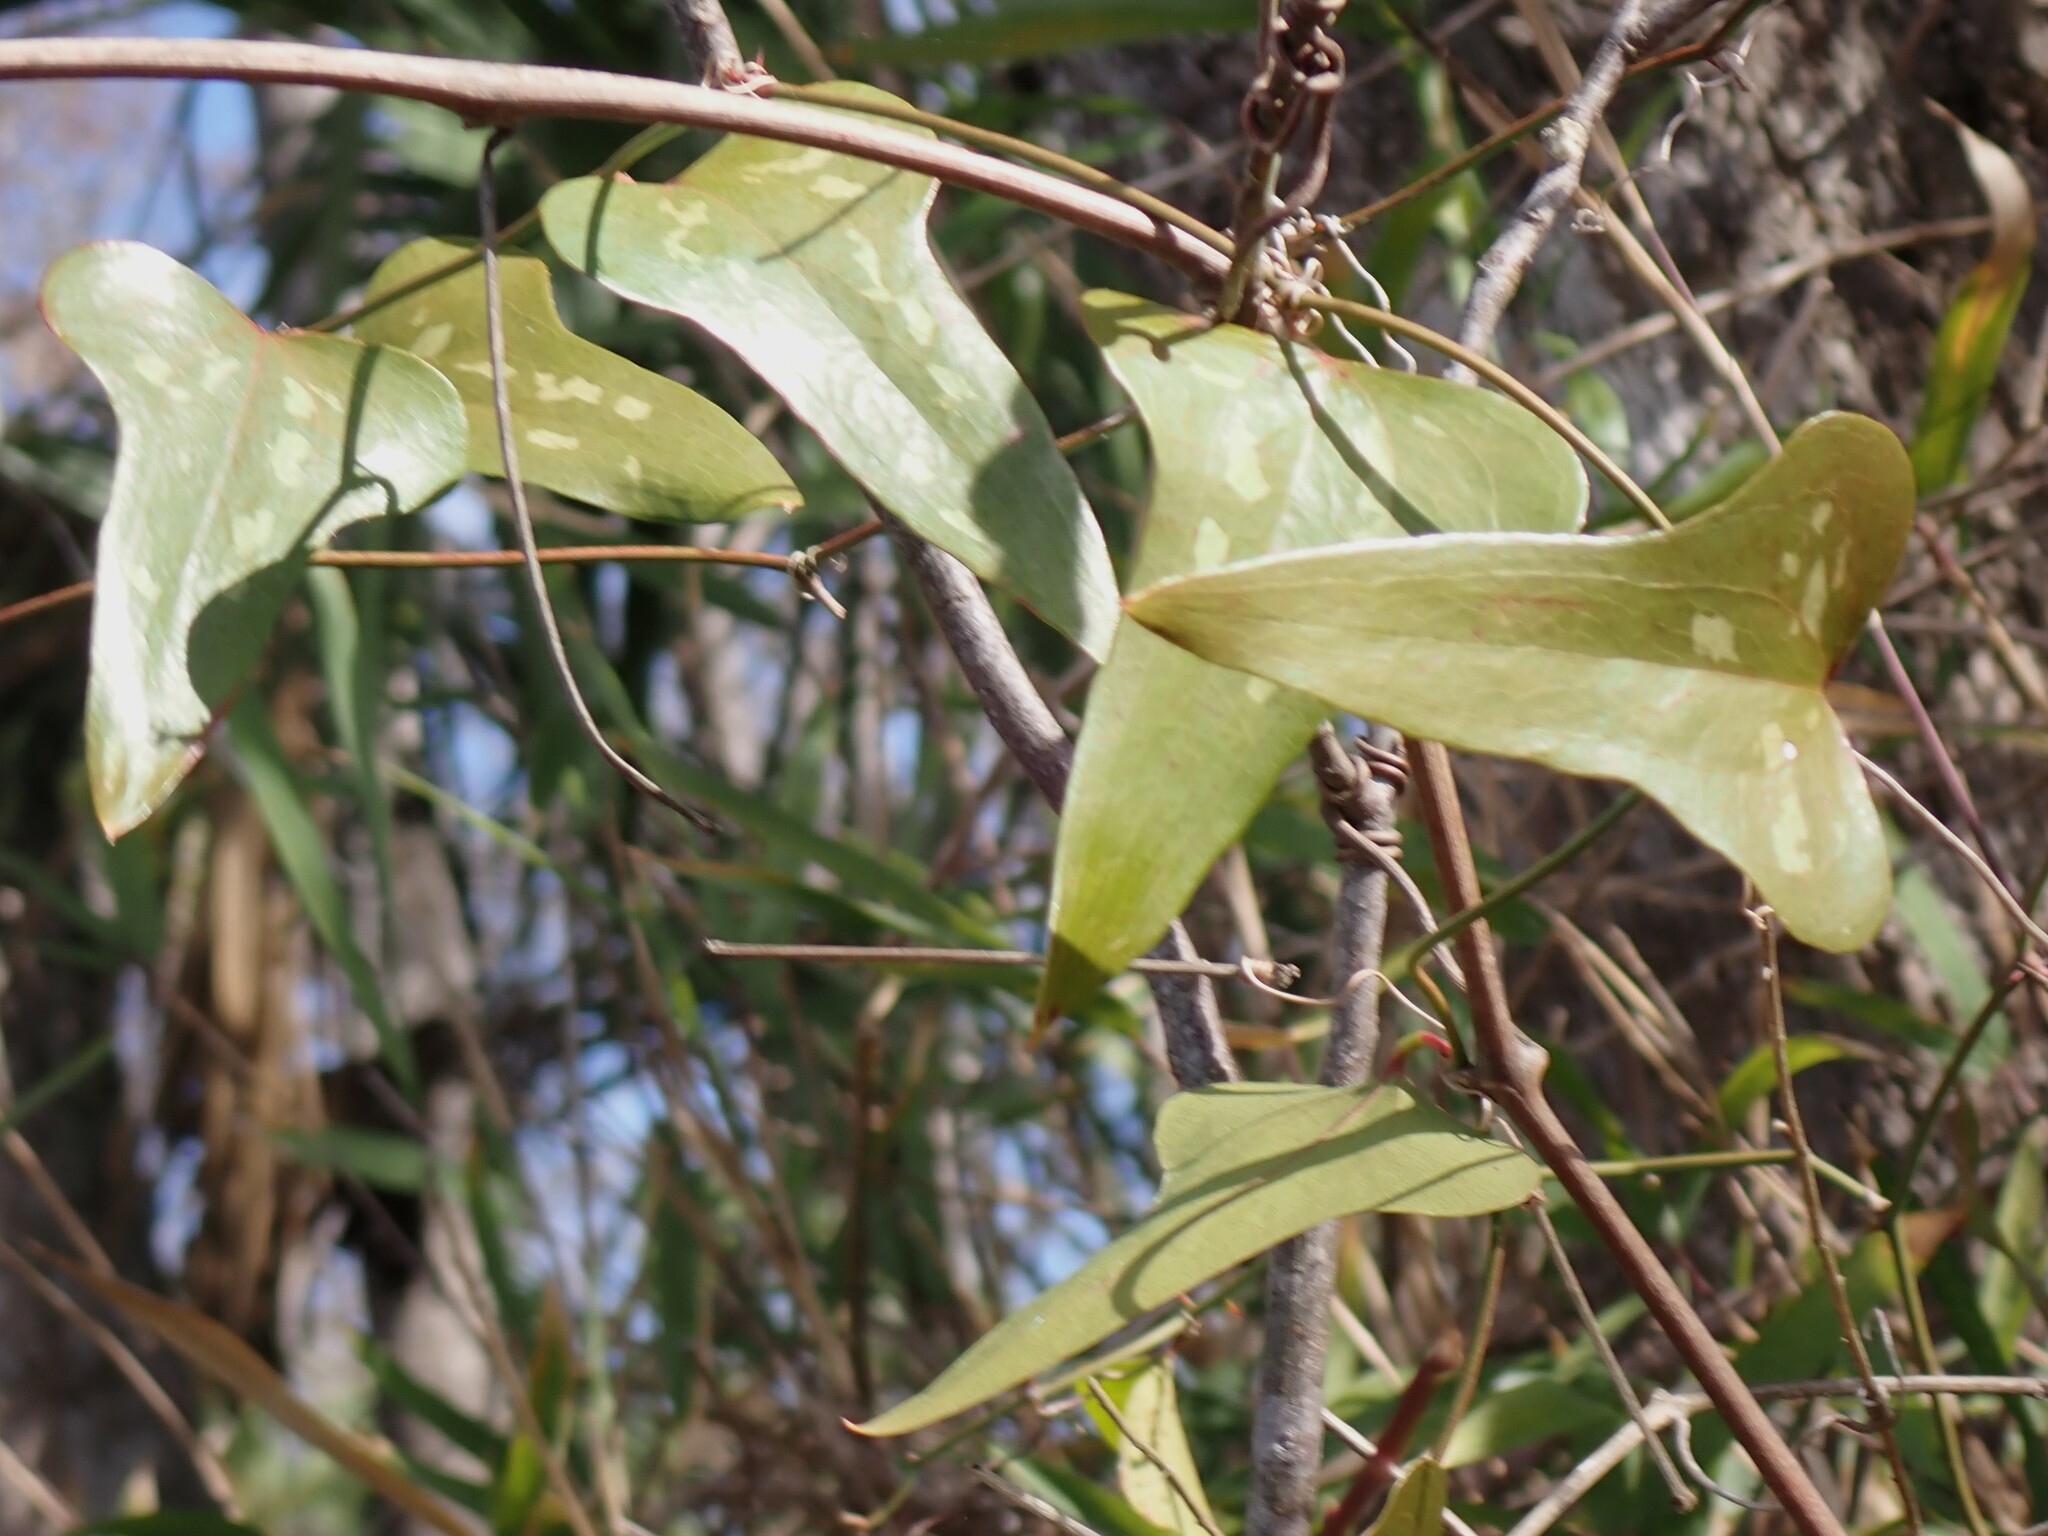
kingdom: Plantae
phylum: Tracheophyta
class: Liliopsida
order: Liliales
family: Smilacaceae
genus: Smilax
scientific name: Smilax bona-nox
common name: Catbrier
